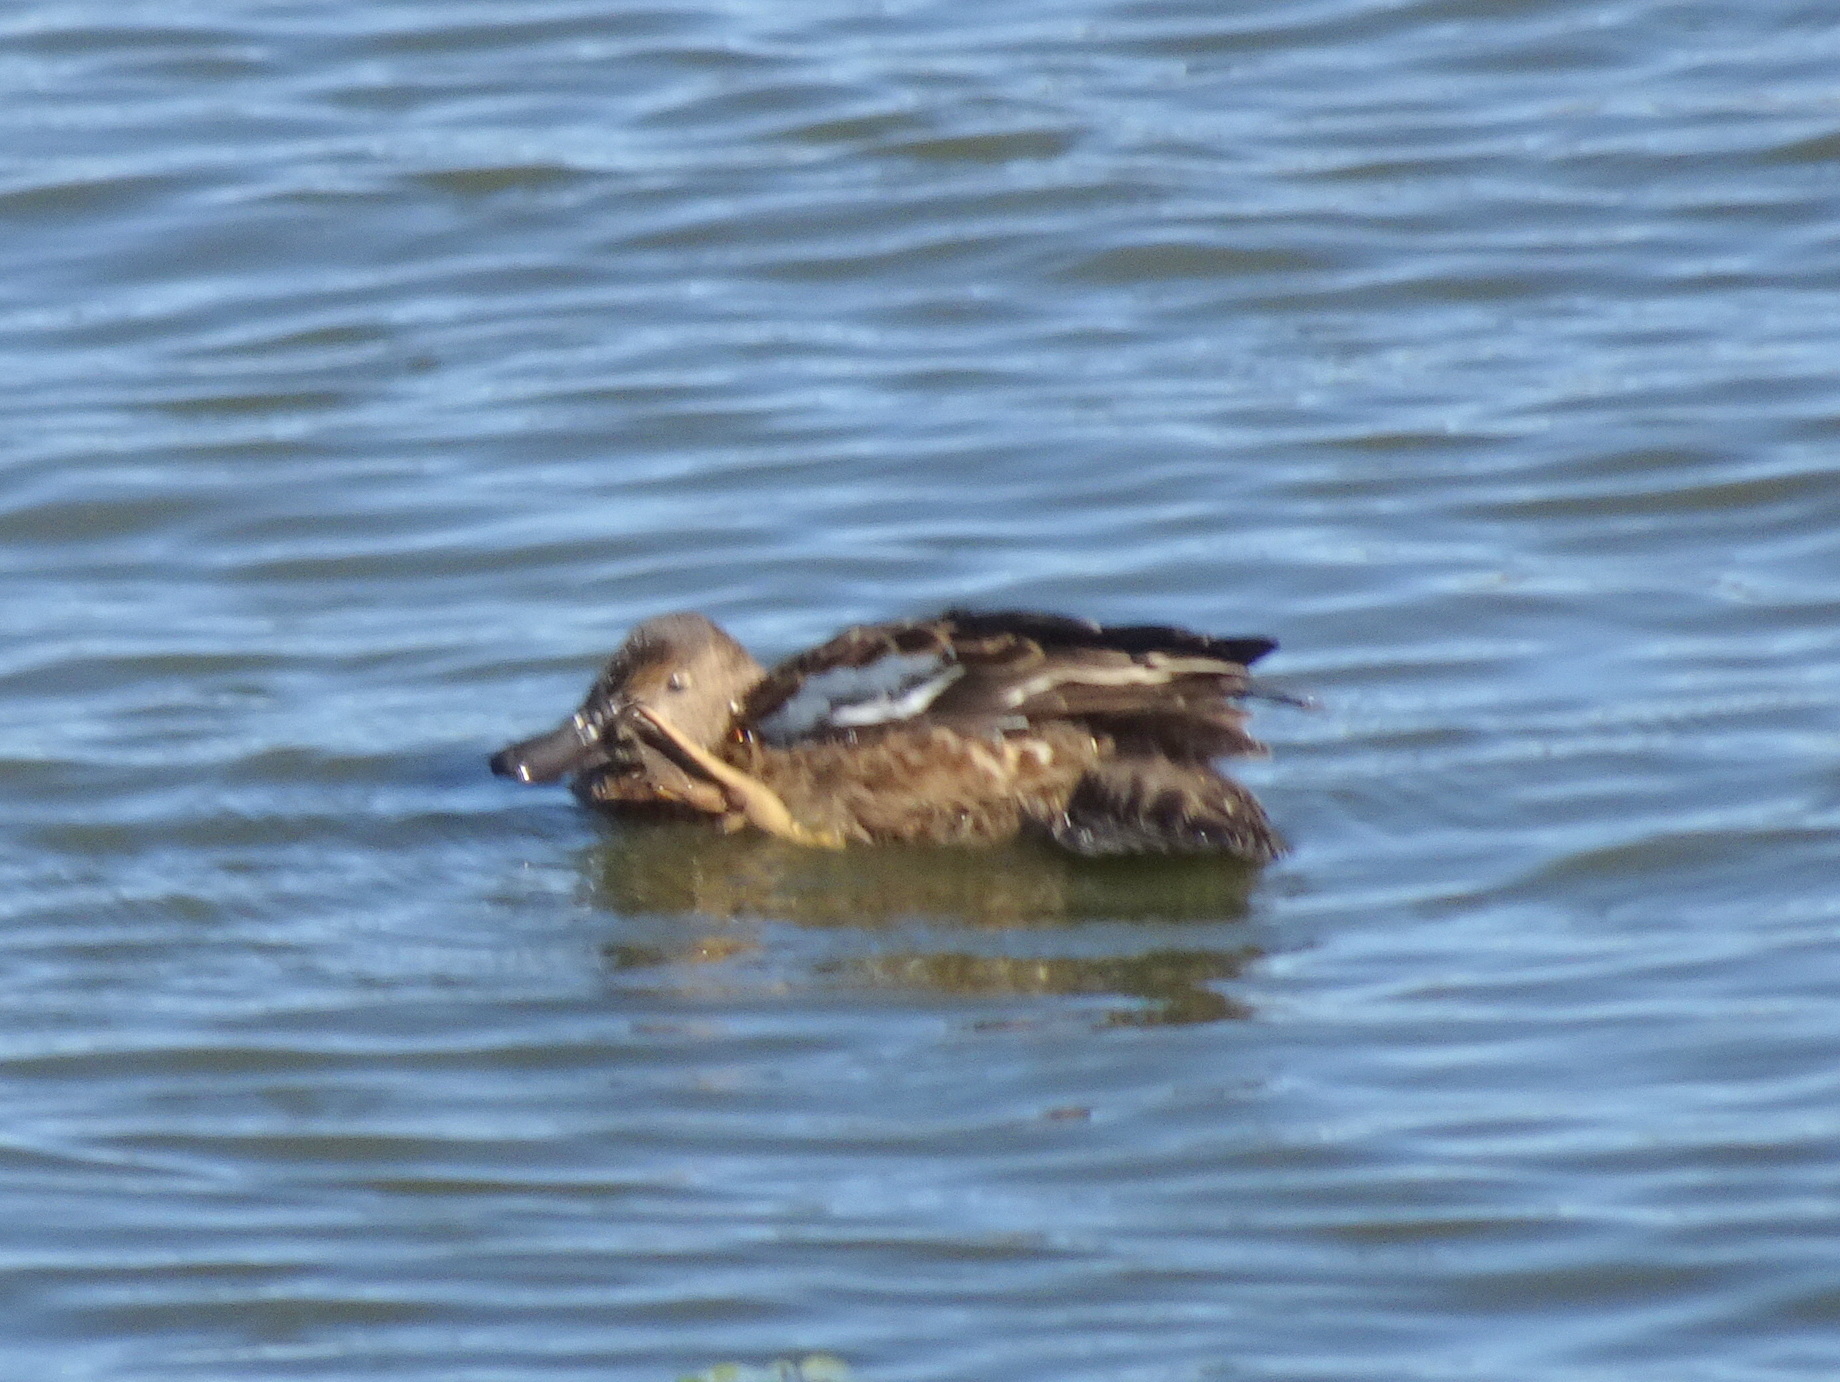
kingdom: Animalia
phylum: Chordata
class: Aves
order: Anseriformes
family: Anatidae
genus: Spatula
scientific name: Spatula cyanoptera
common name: Cinnamon teal
